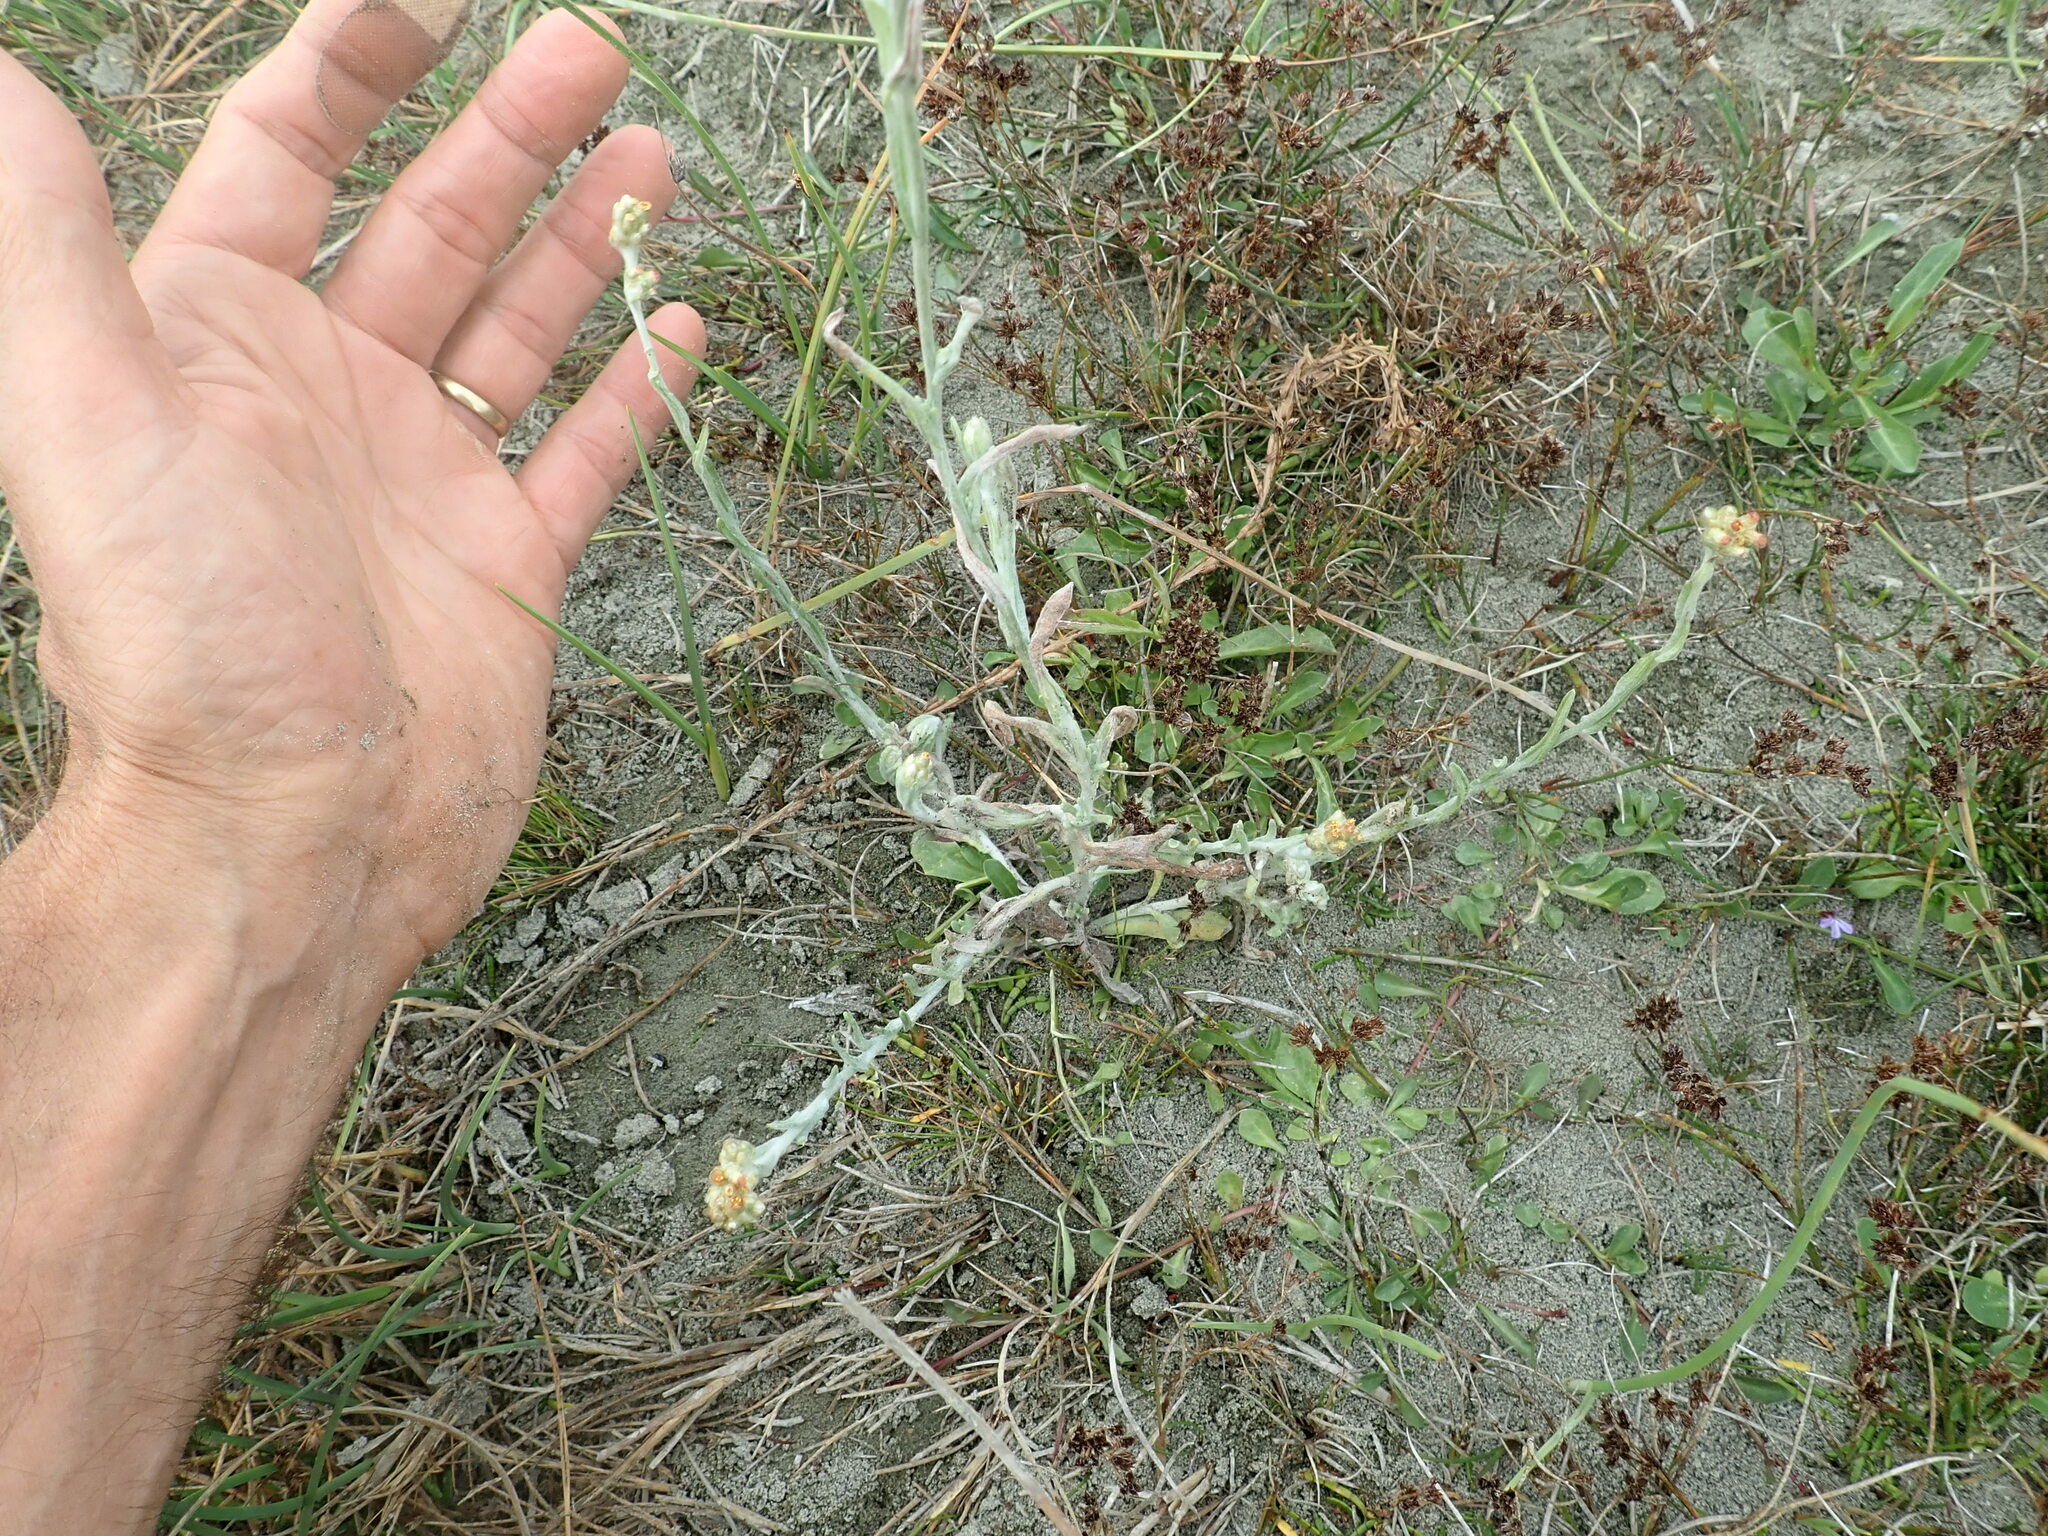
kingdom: Plantae
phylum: Tracheophyta
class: Magnoliopsida
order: Asterales
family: Asteraceae
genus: Helichrysum
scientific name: Helichrysum luteoalbum
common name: Daisy
